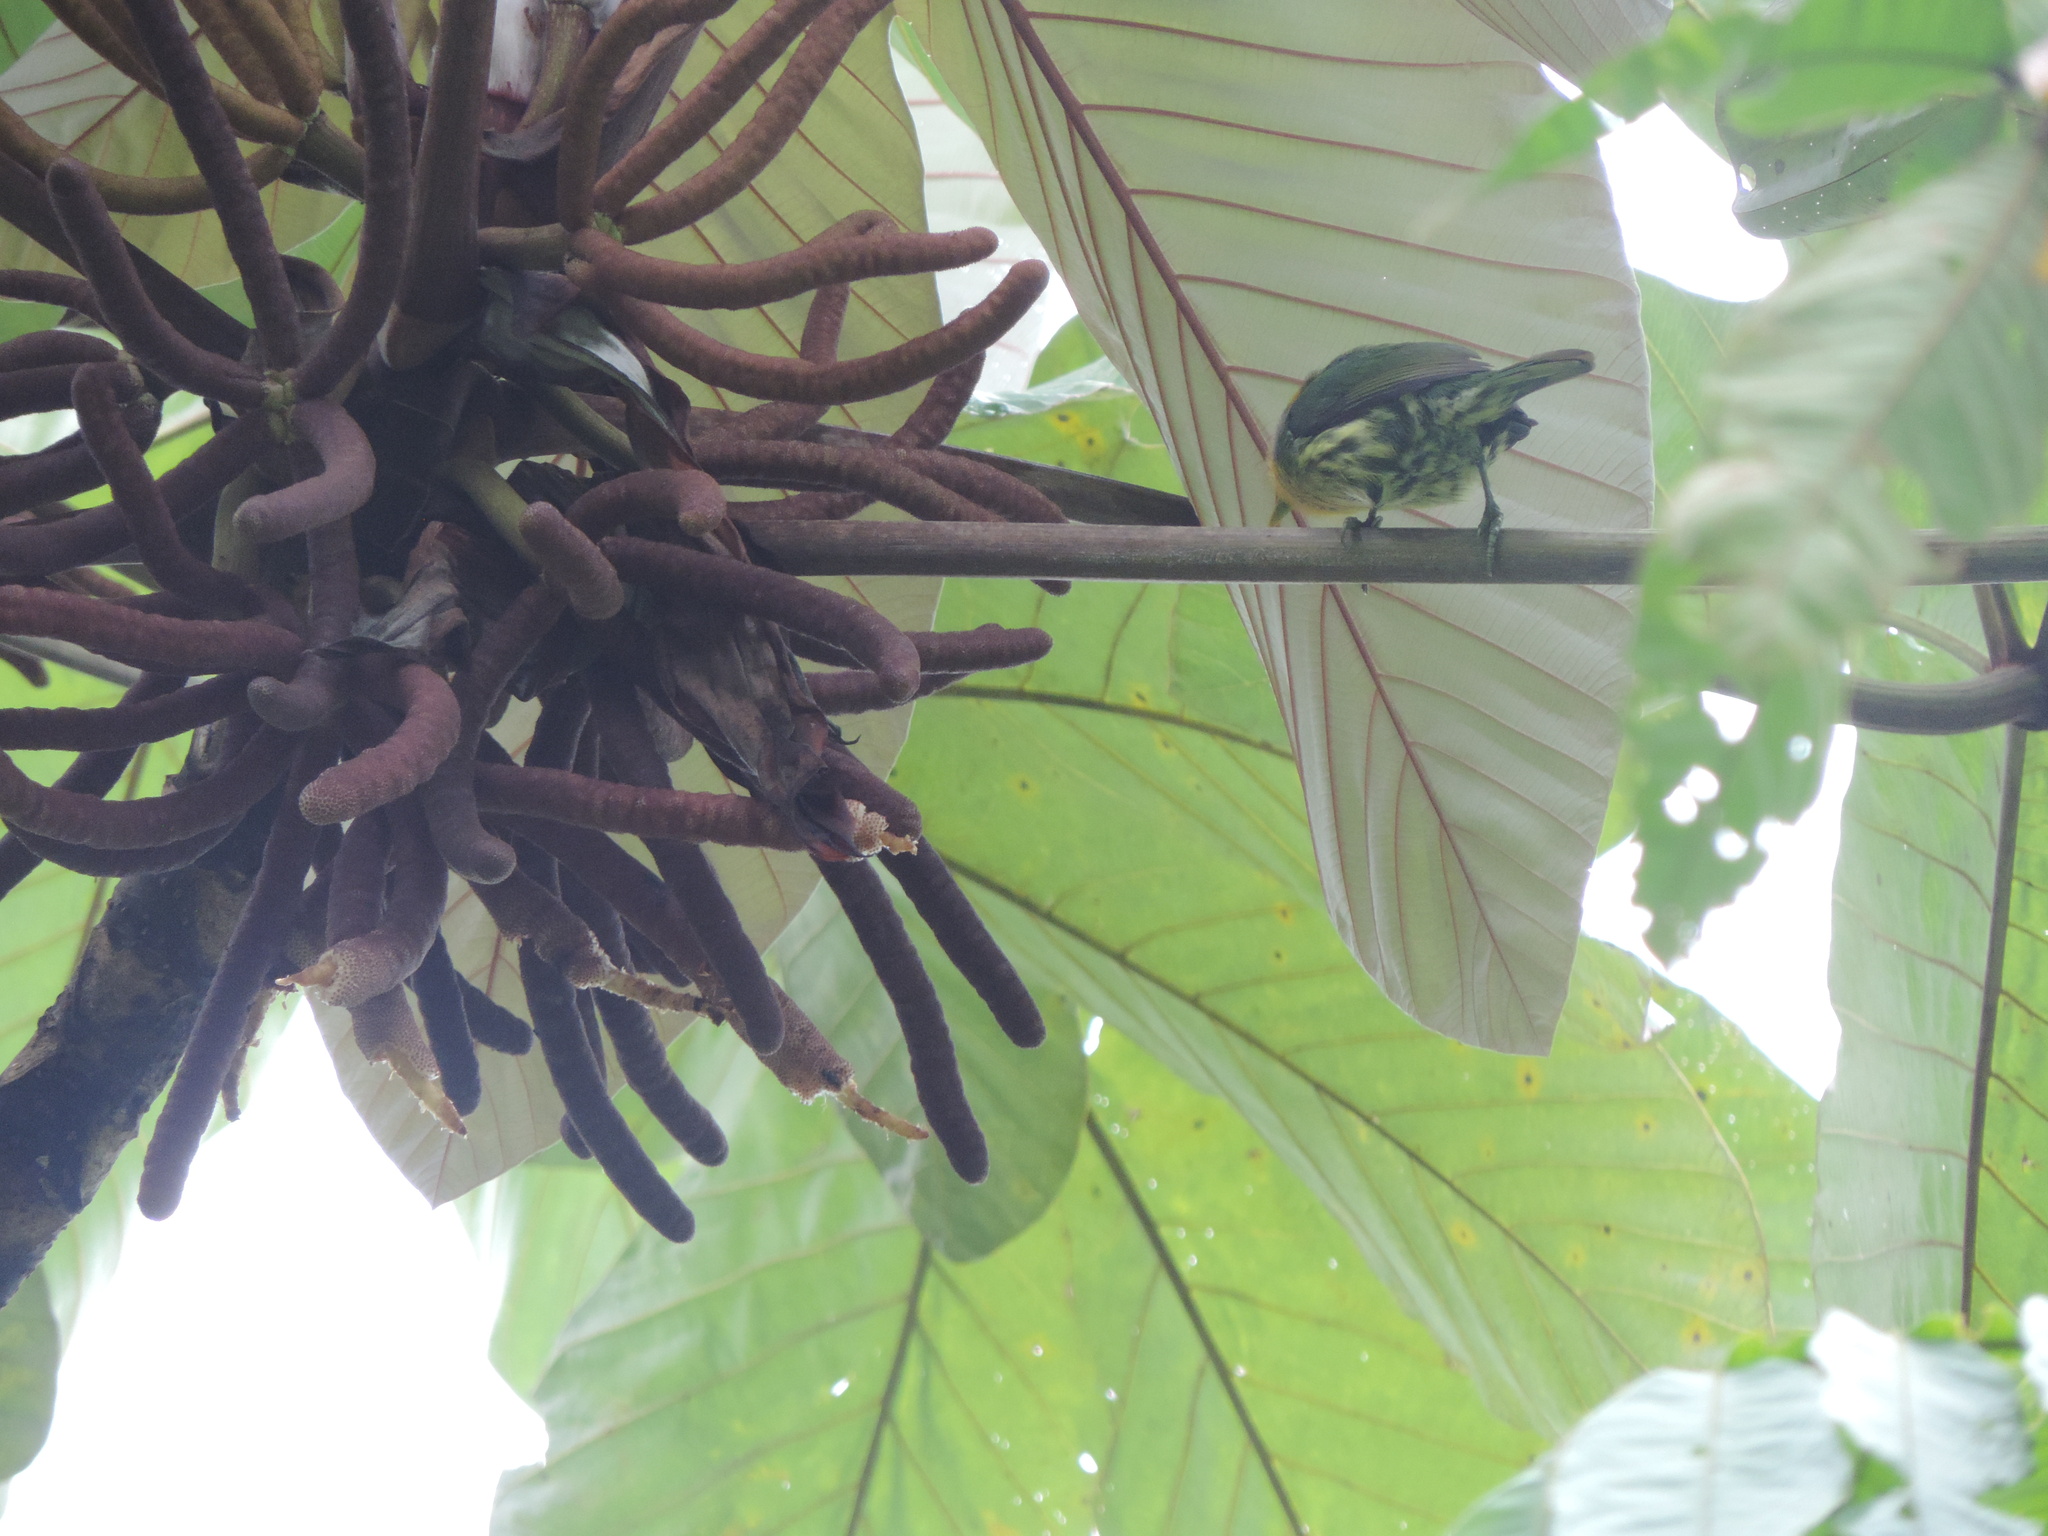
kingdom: Animalia
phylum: Chordata
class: Aves
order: Piciformes
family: Capitonidae
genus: Eubucco
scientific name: Eubucco bourcierii
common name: Red-headed barbet
